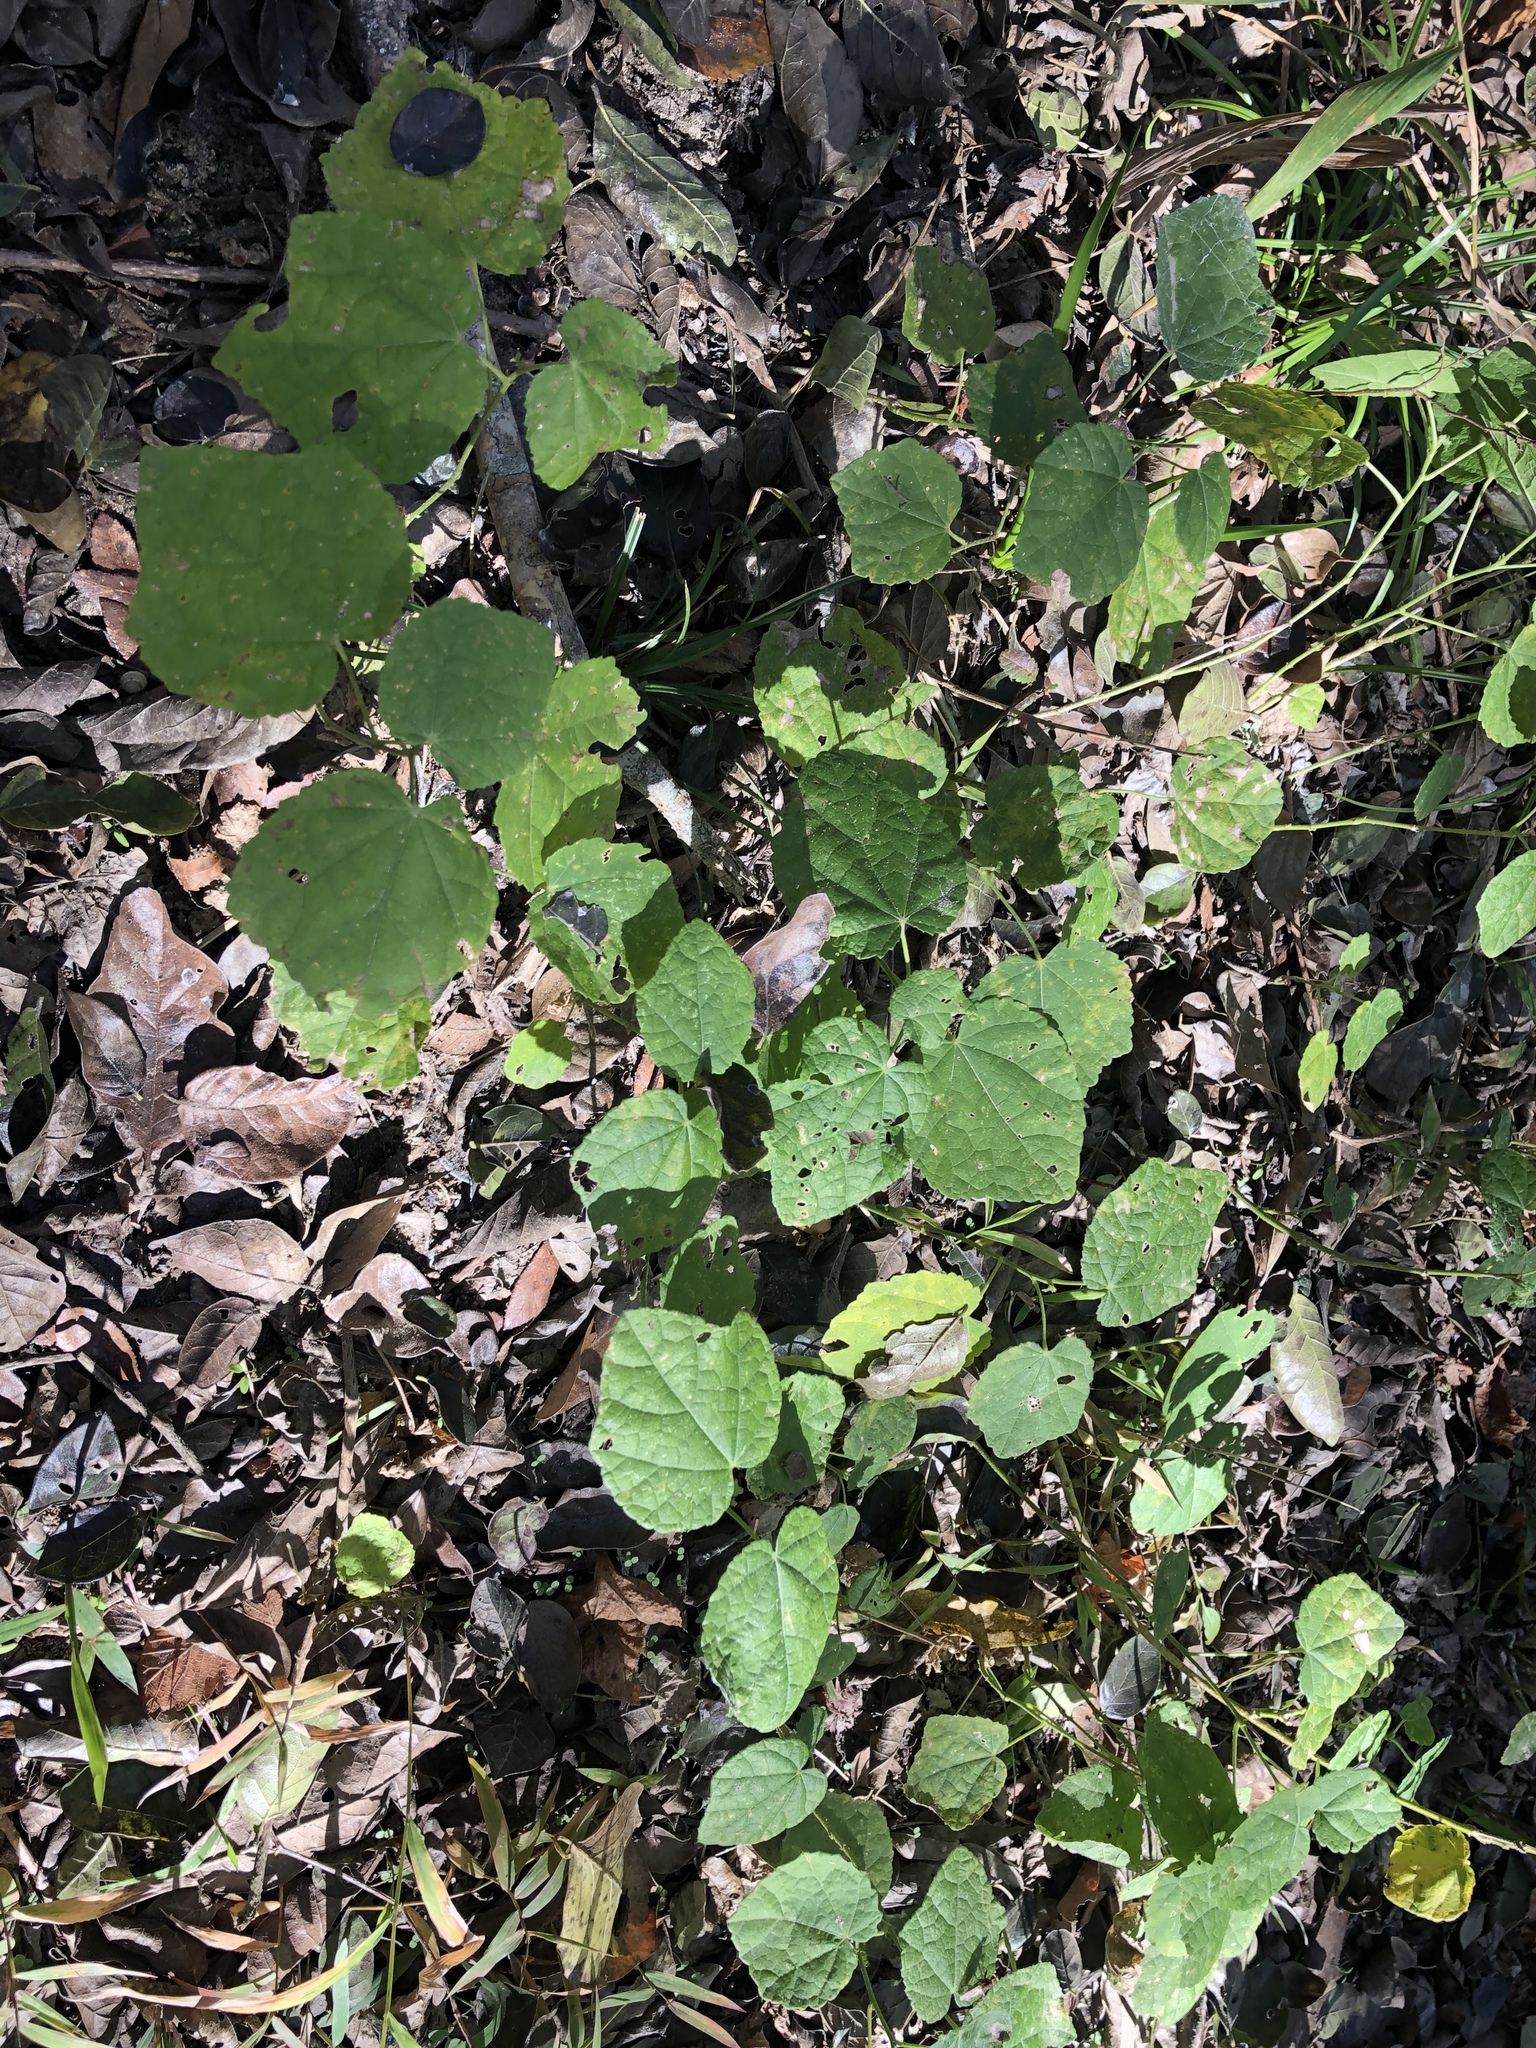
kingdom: Plantae
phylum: Tracheophyta
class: Magnoliopsida
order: Malvales
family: Malvaceae
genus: Malvaviscus
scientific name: Malvaviscus arboreus
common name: Wax mallow
